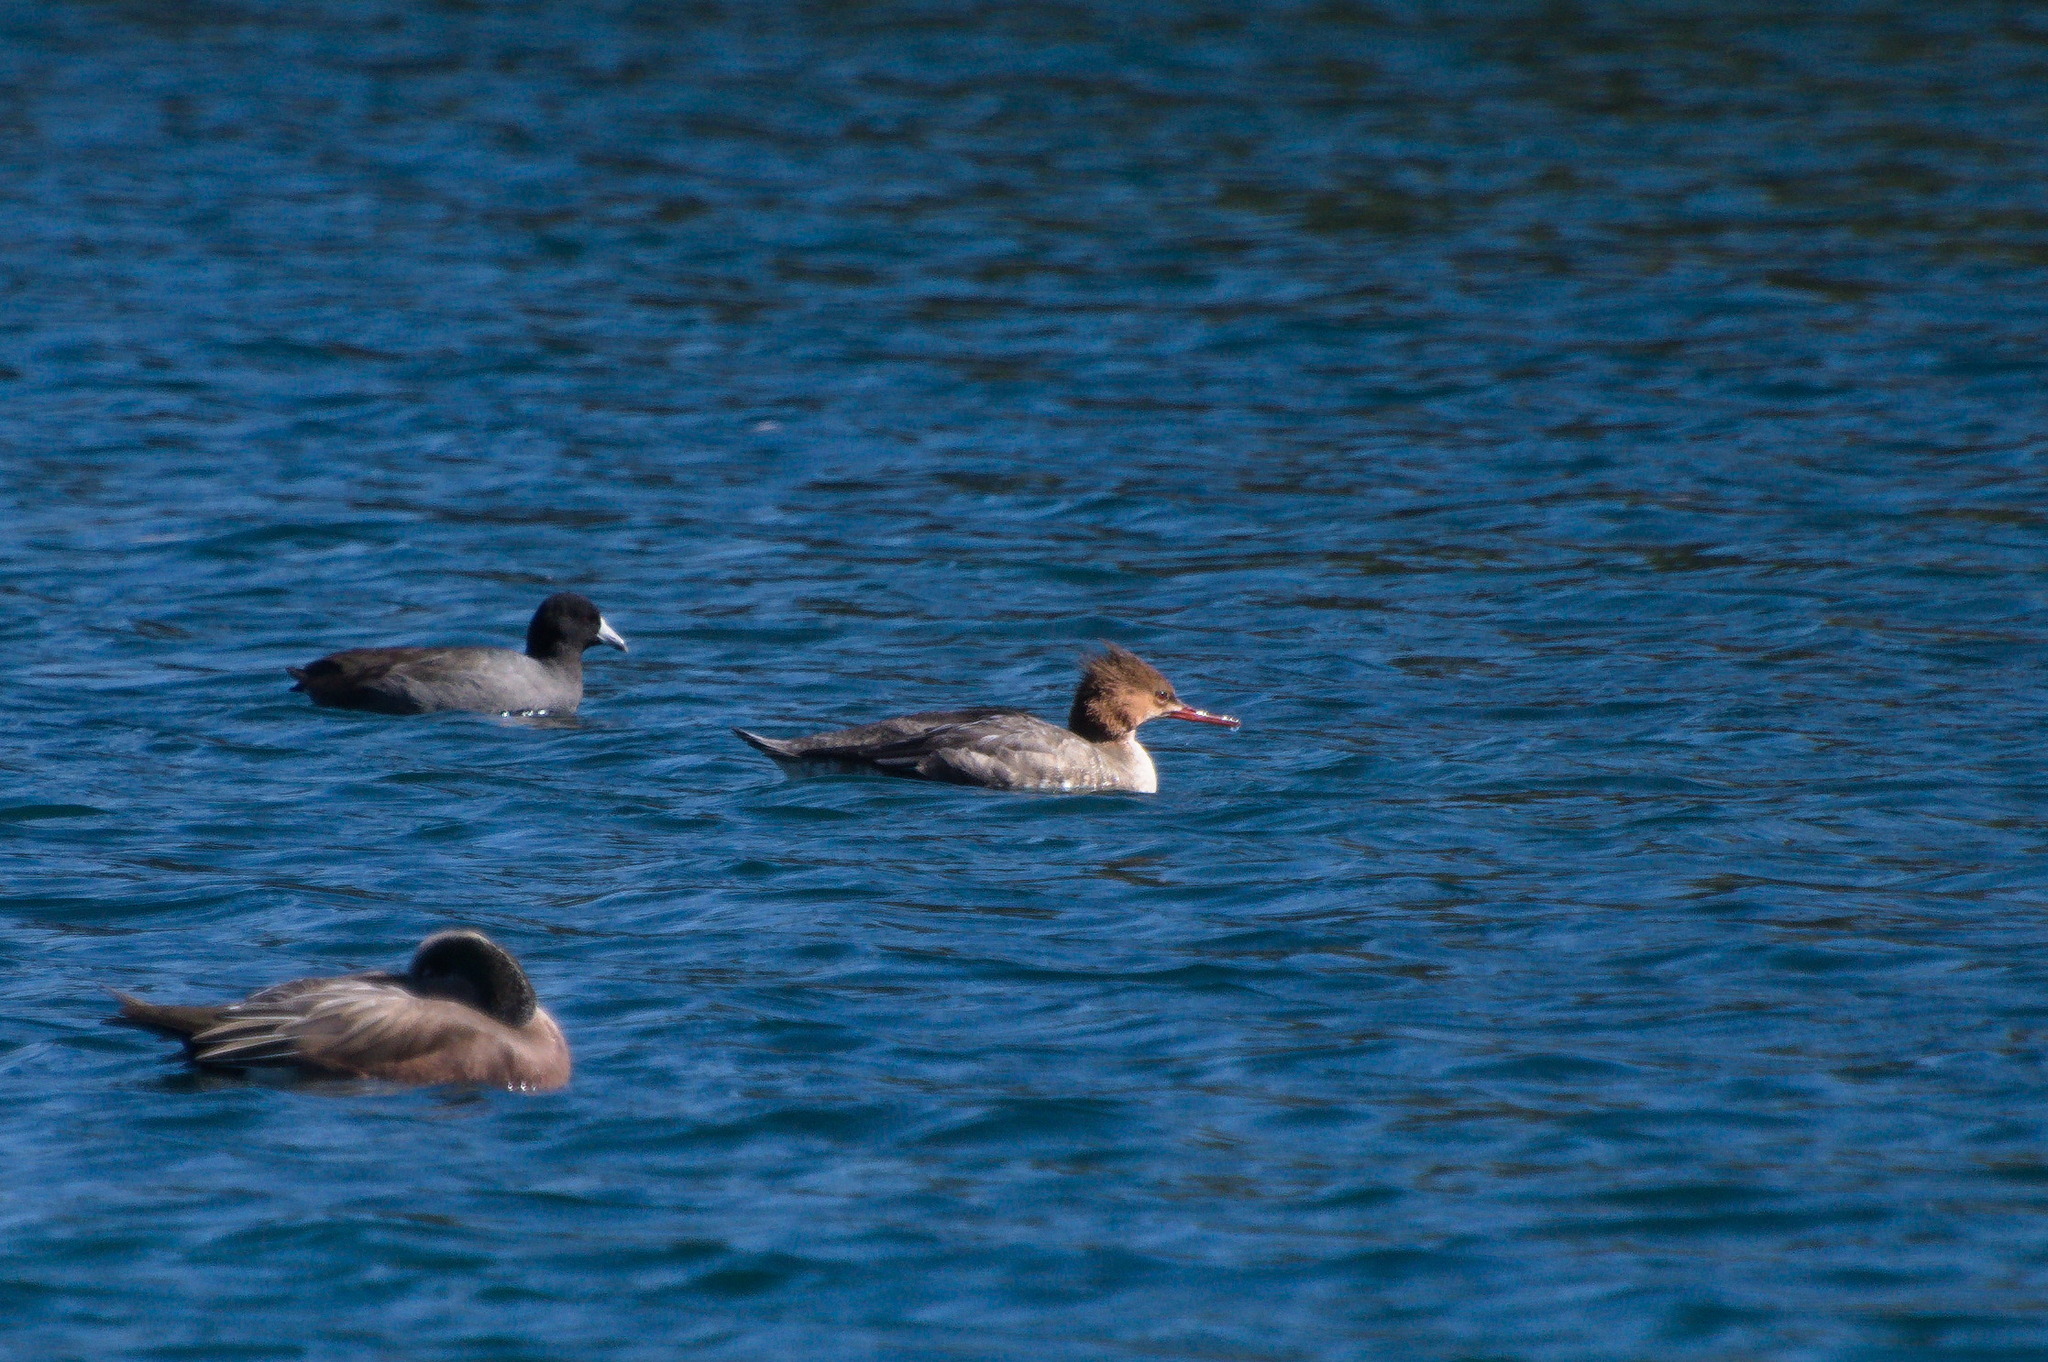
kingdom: Animalia
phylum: Chordata
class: Aves
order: Anseriformes
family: Anatidae
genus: Mergus
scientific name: Mergus serrator
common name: Red-breasted merganser
